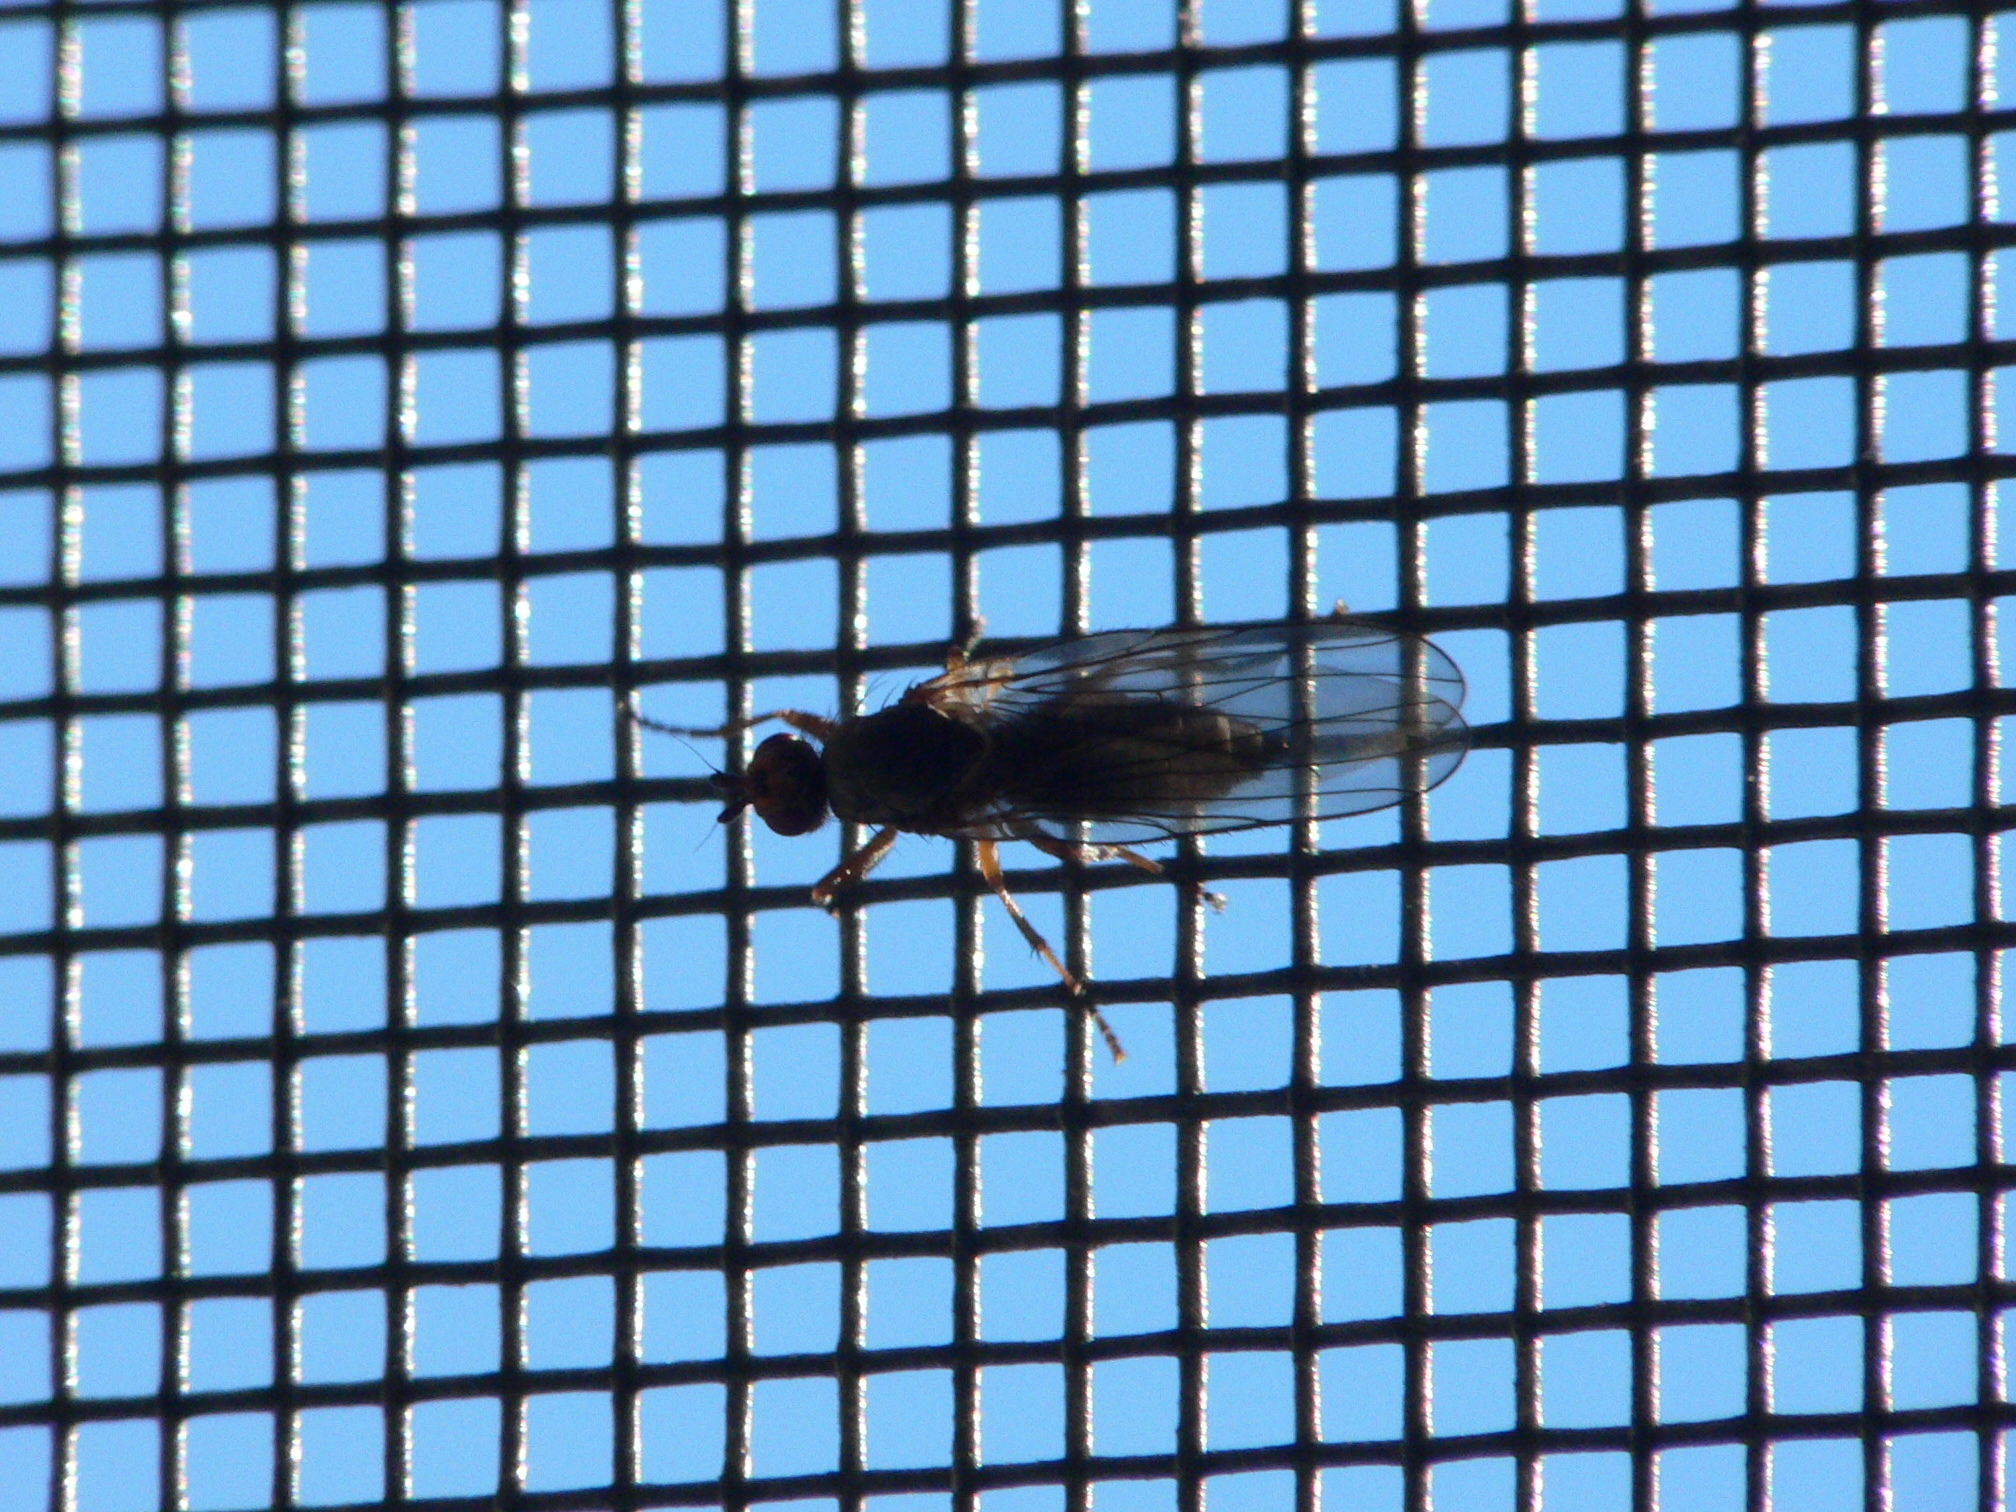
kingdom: Animalia
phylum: Arthropoda
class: Insecta
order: Diptera
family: Heleomyzidae
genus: Orbellia
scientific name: Orbellia barbata
